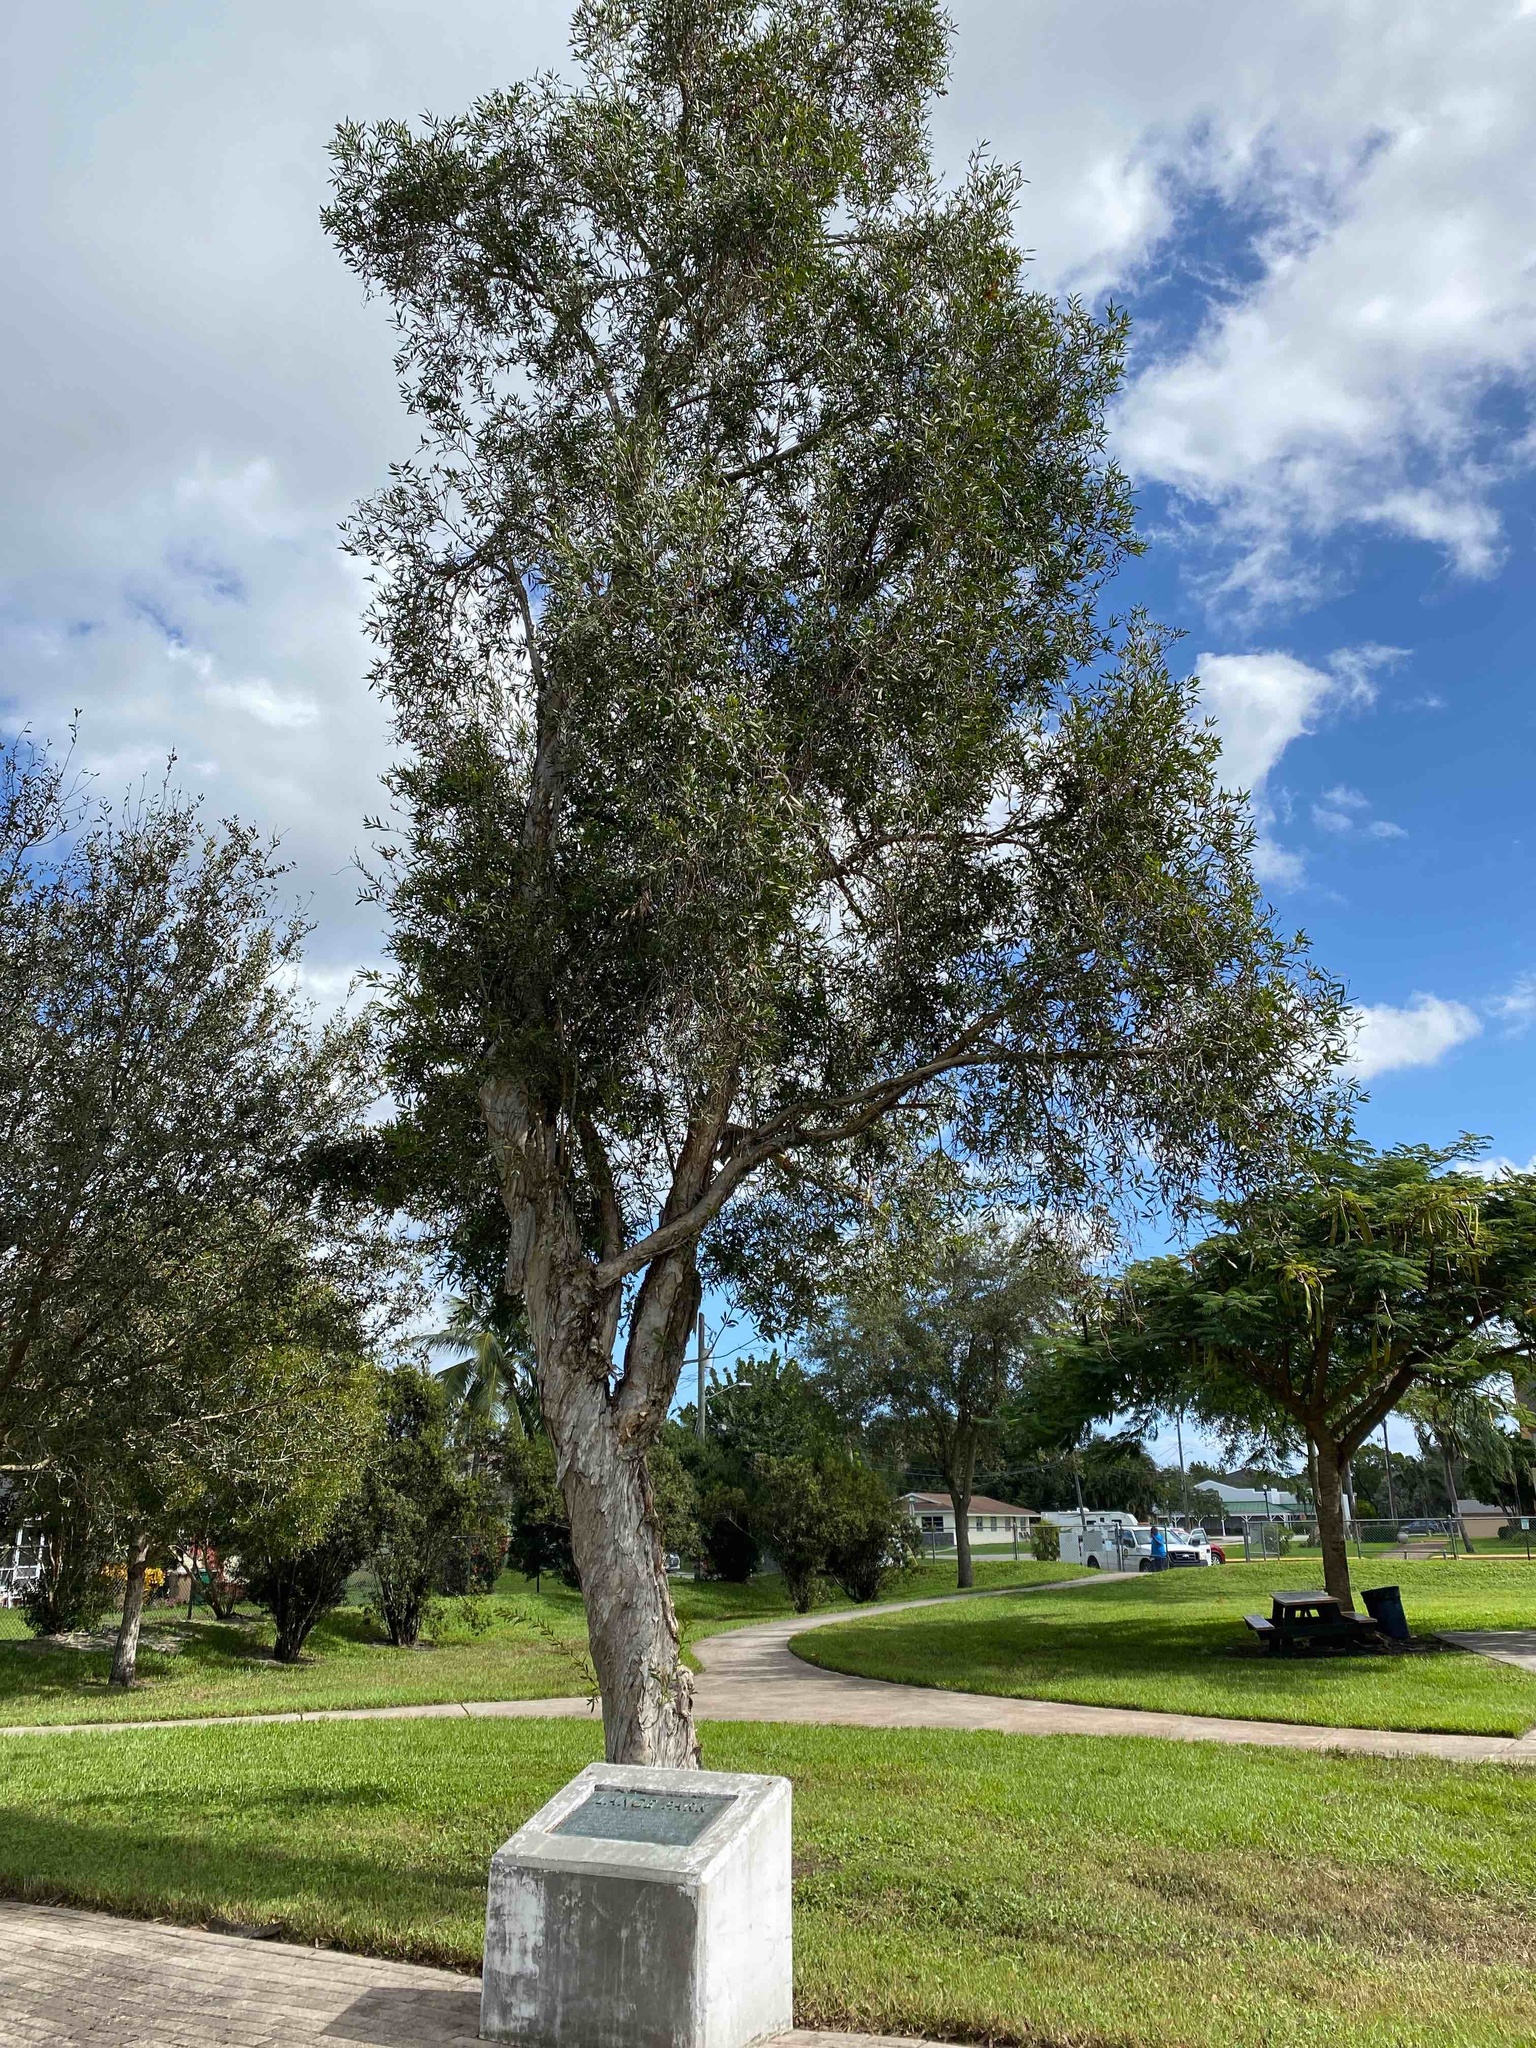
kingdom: Plantae
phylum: Tracheophyta
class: Magnoliopsida
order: Myrtales
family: Myrtaceae
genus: Melaleuca
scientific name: Melaleuca quinquenervia
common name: Punktree
